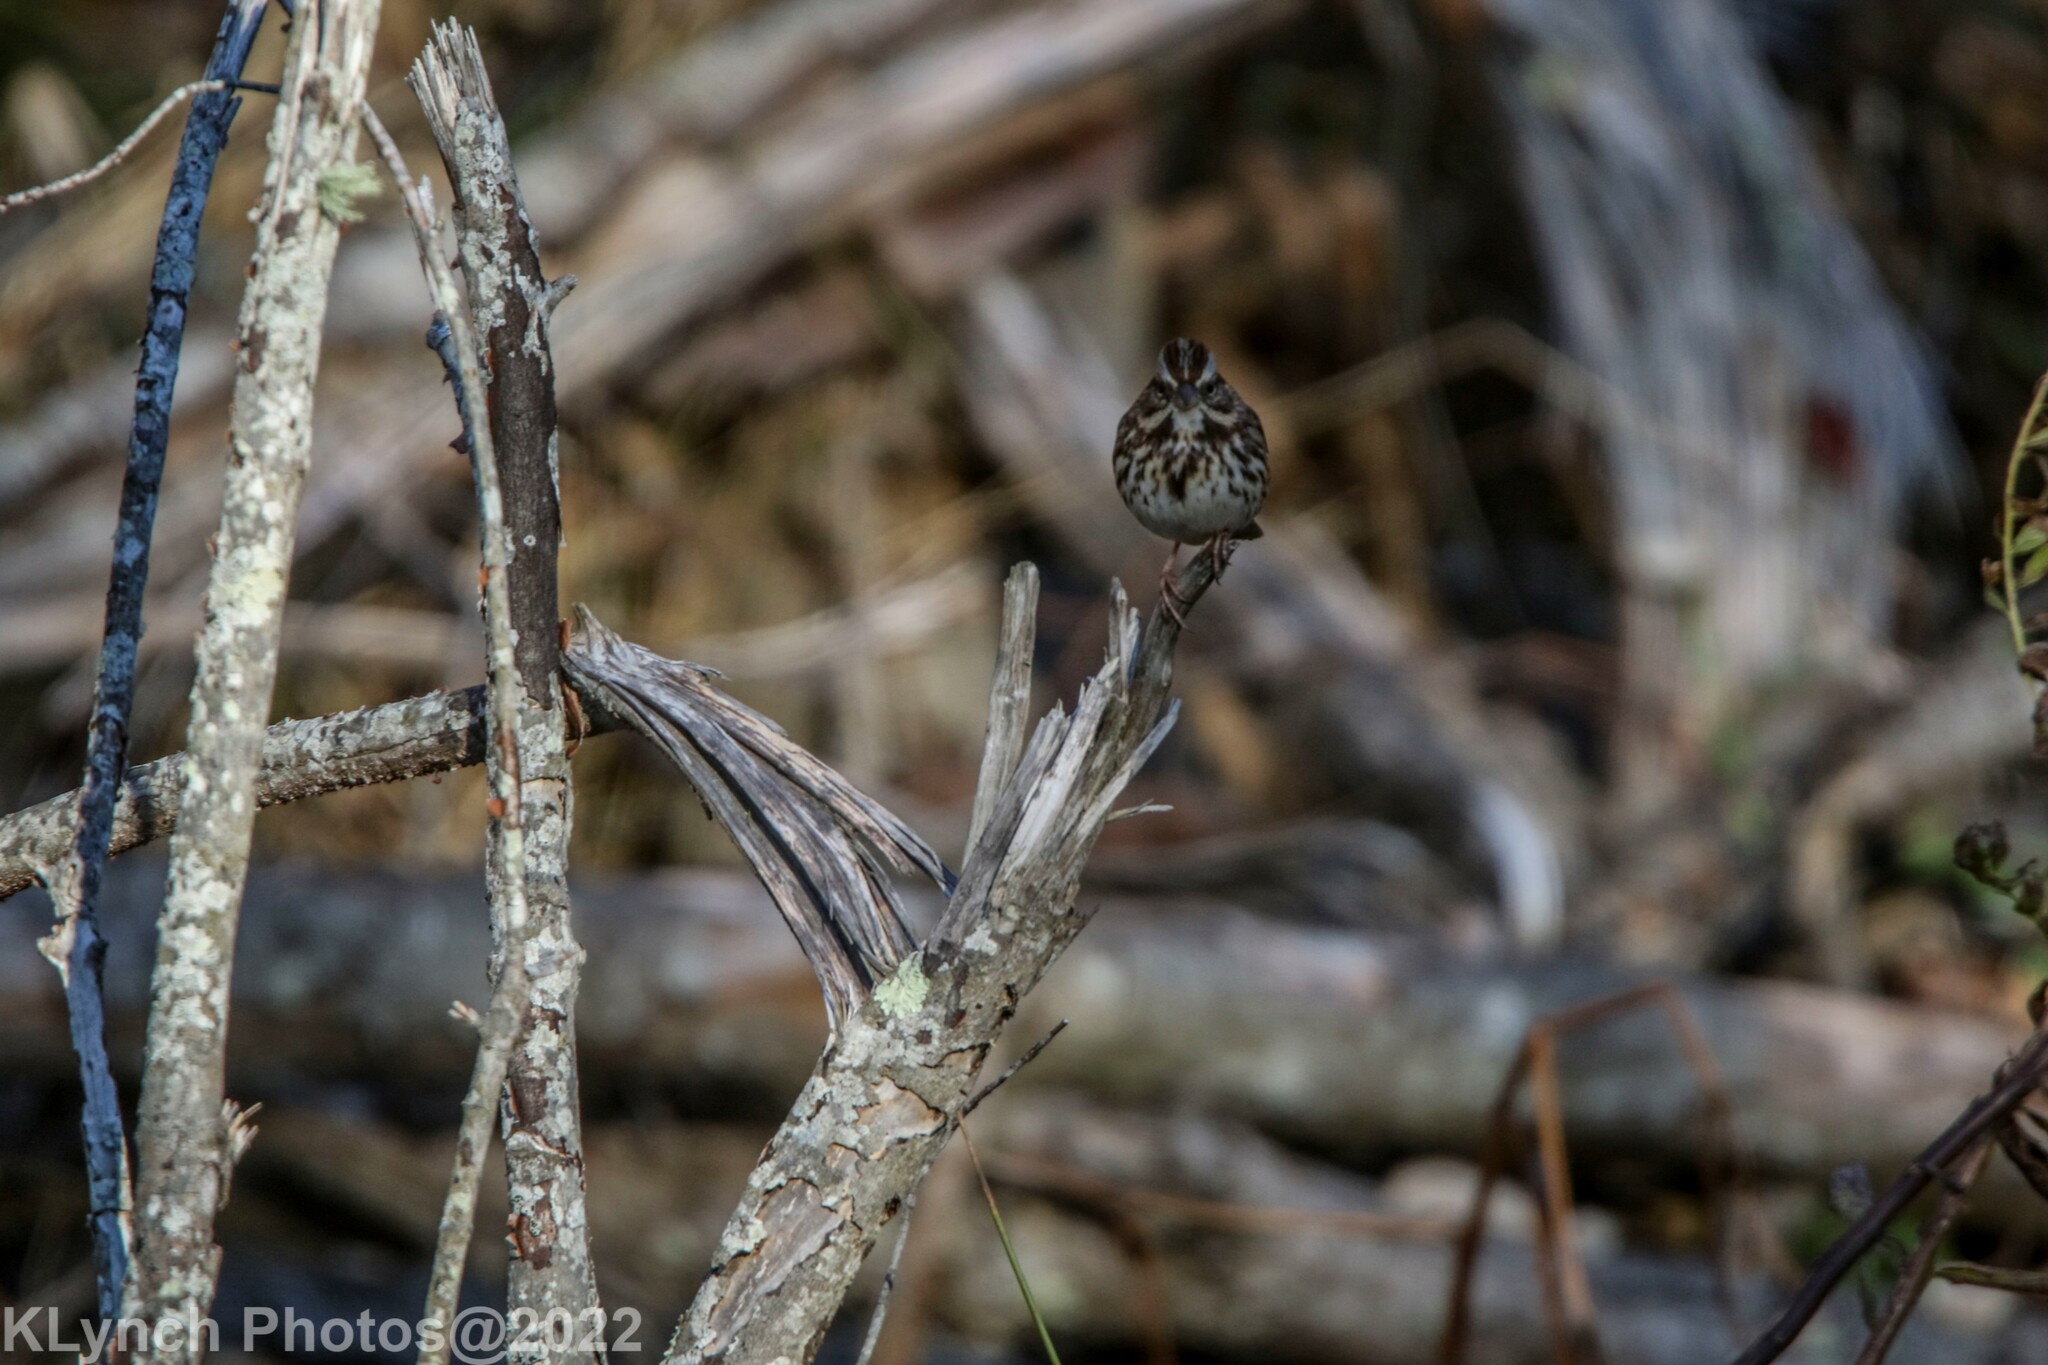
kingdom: Animalia
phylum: Chordata
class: Aves
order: Passeriformes
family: Passerellidae
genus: Melospiza
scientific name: Melospiza melodia
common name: Song sparrow
